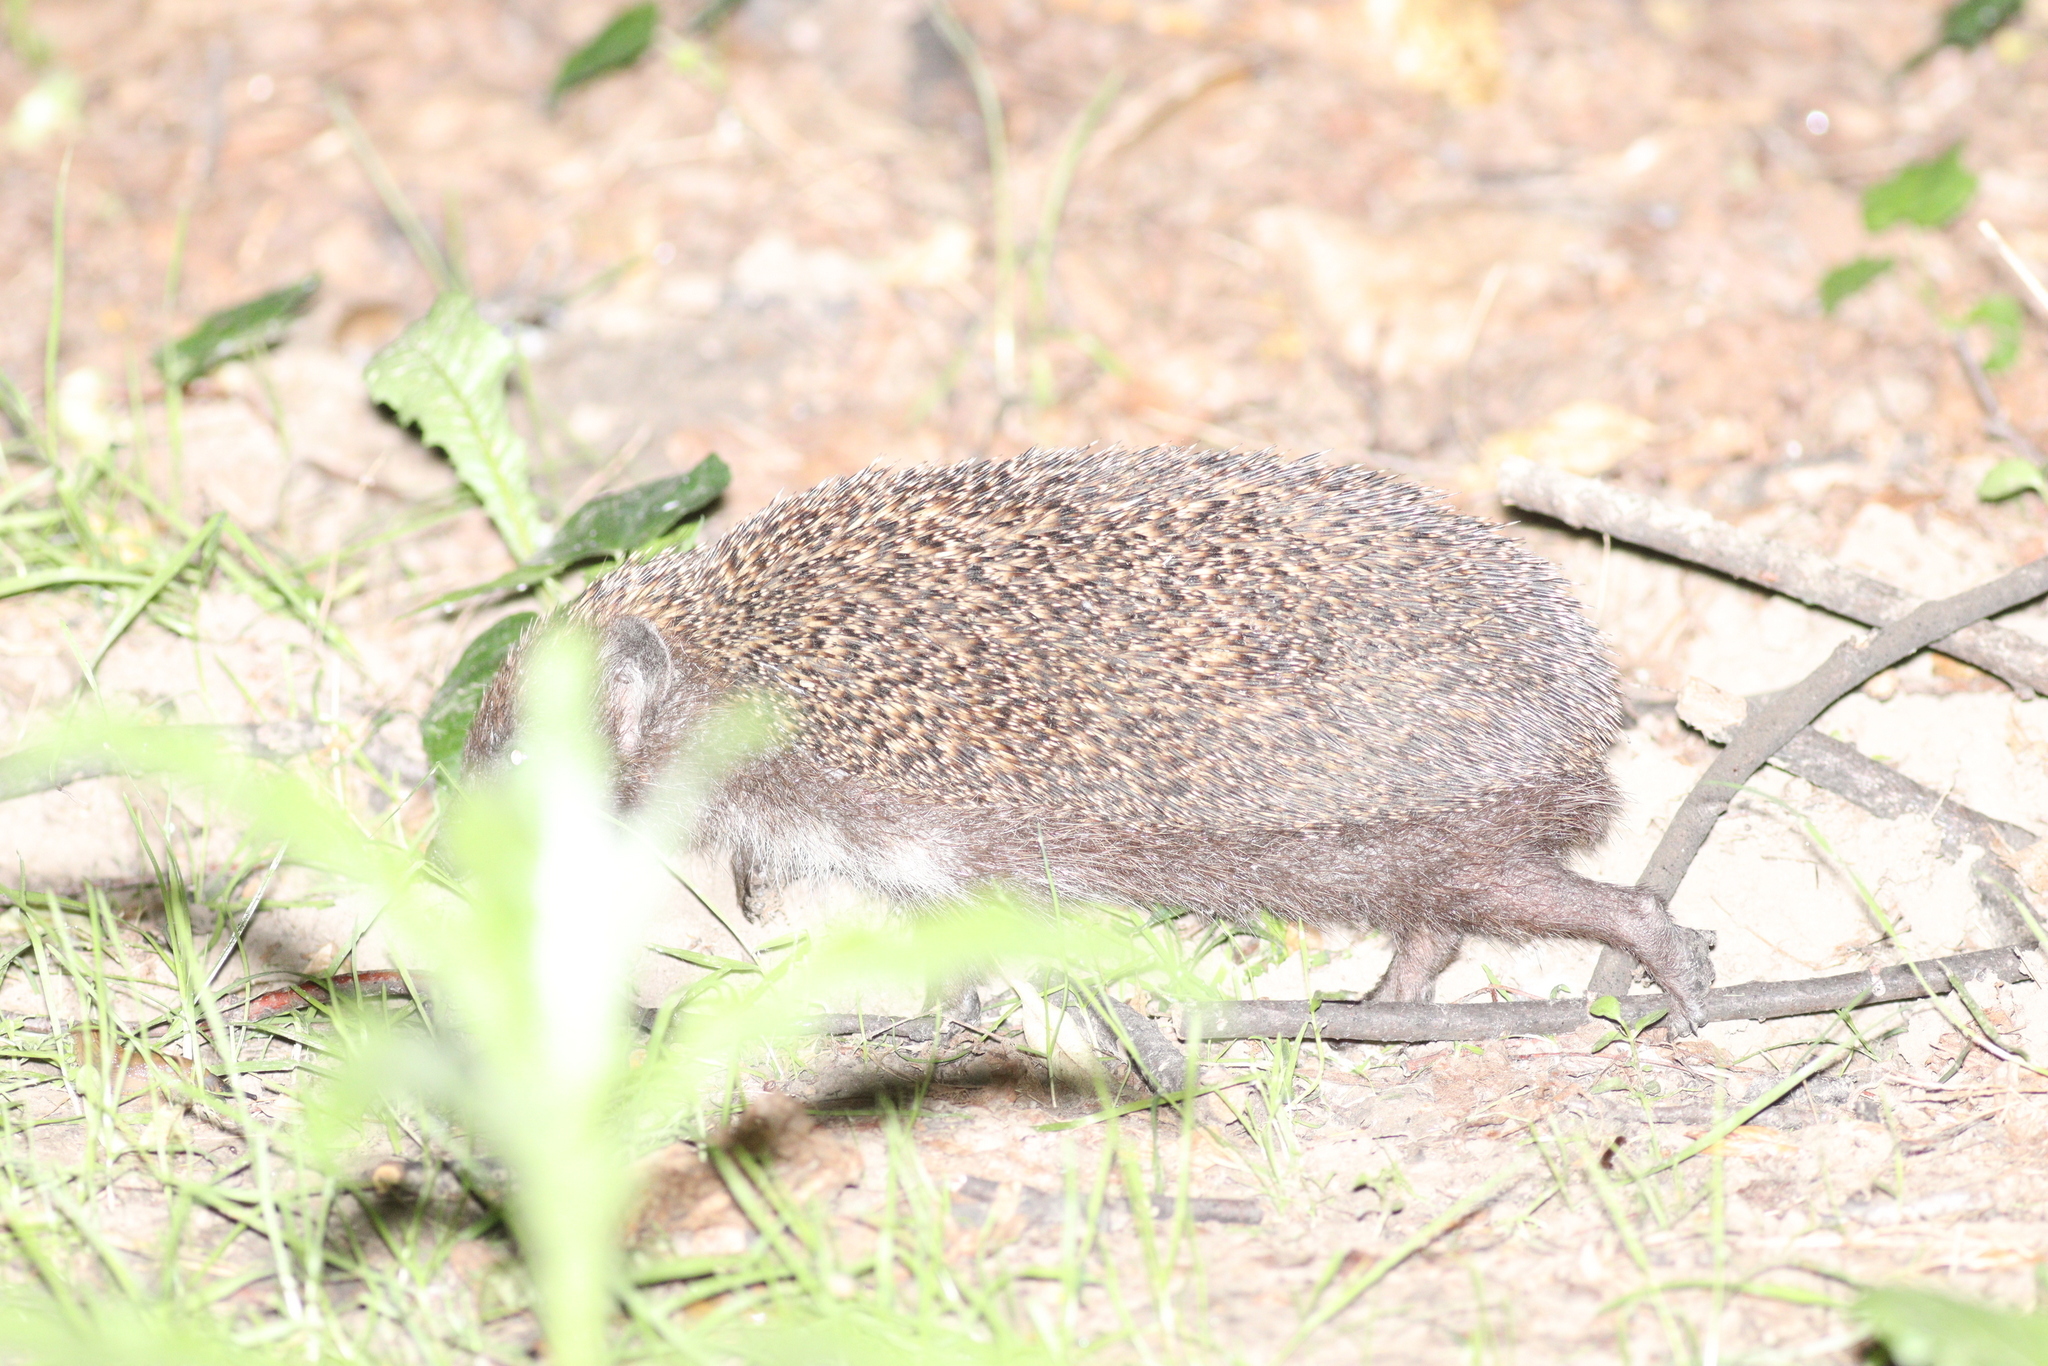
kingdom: Animalia
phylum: Chordata
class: Mammalia
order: Erinaceomorpha
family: Erinaceidae
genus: Erinaceus
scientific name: Erinaceus roumanicus
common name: Northern white-breasted hedgehog
